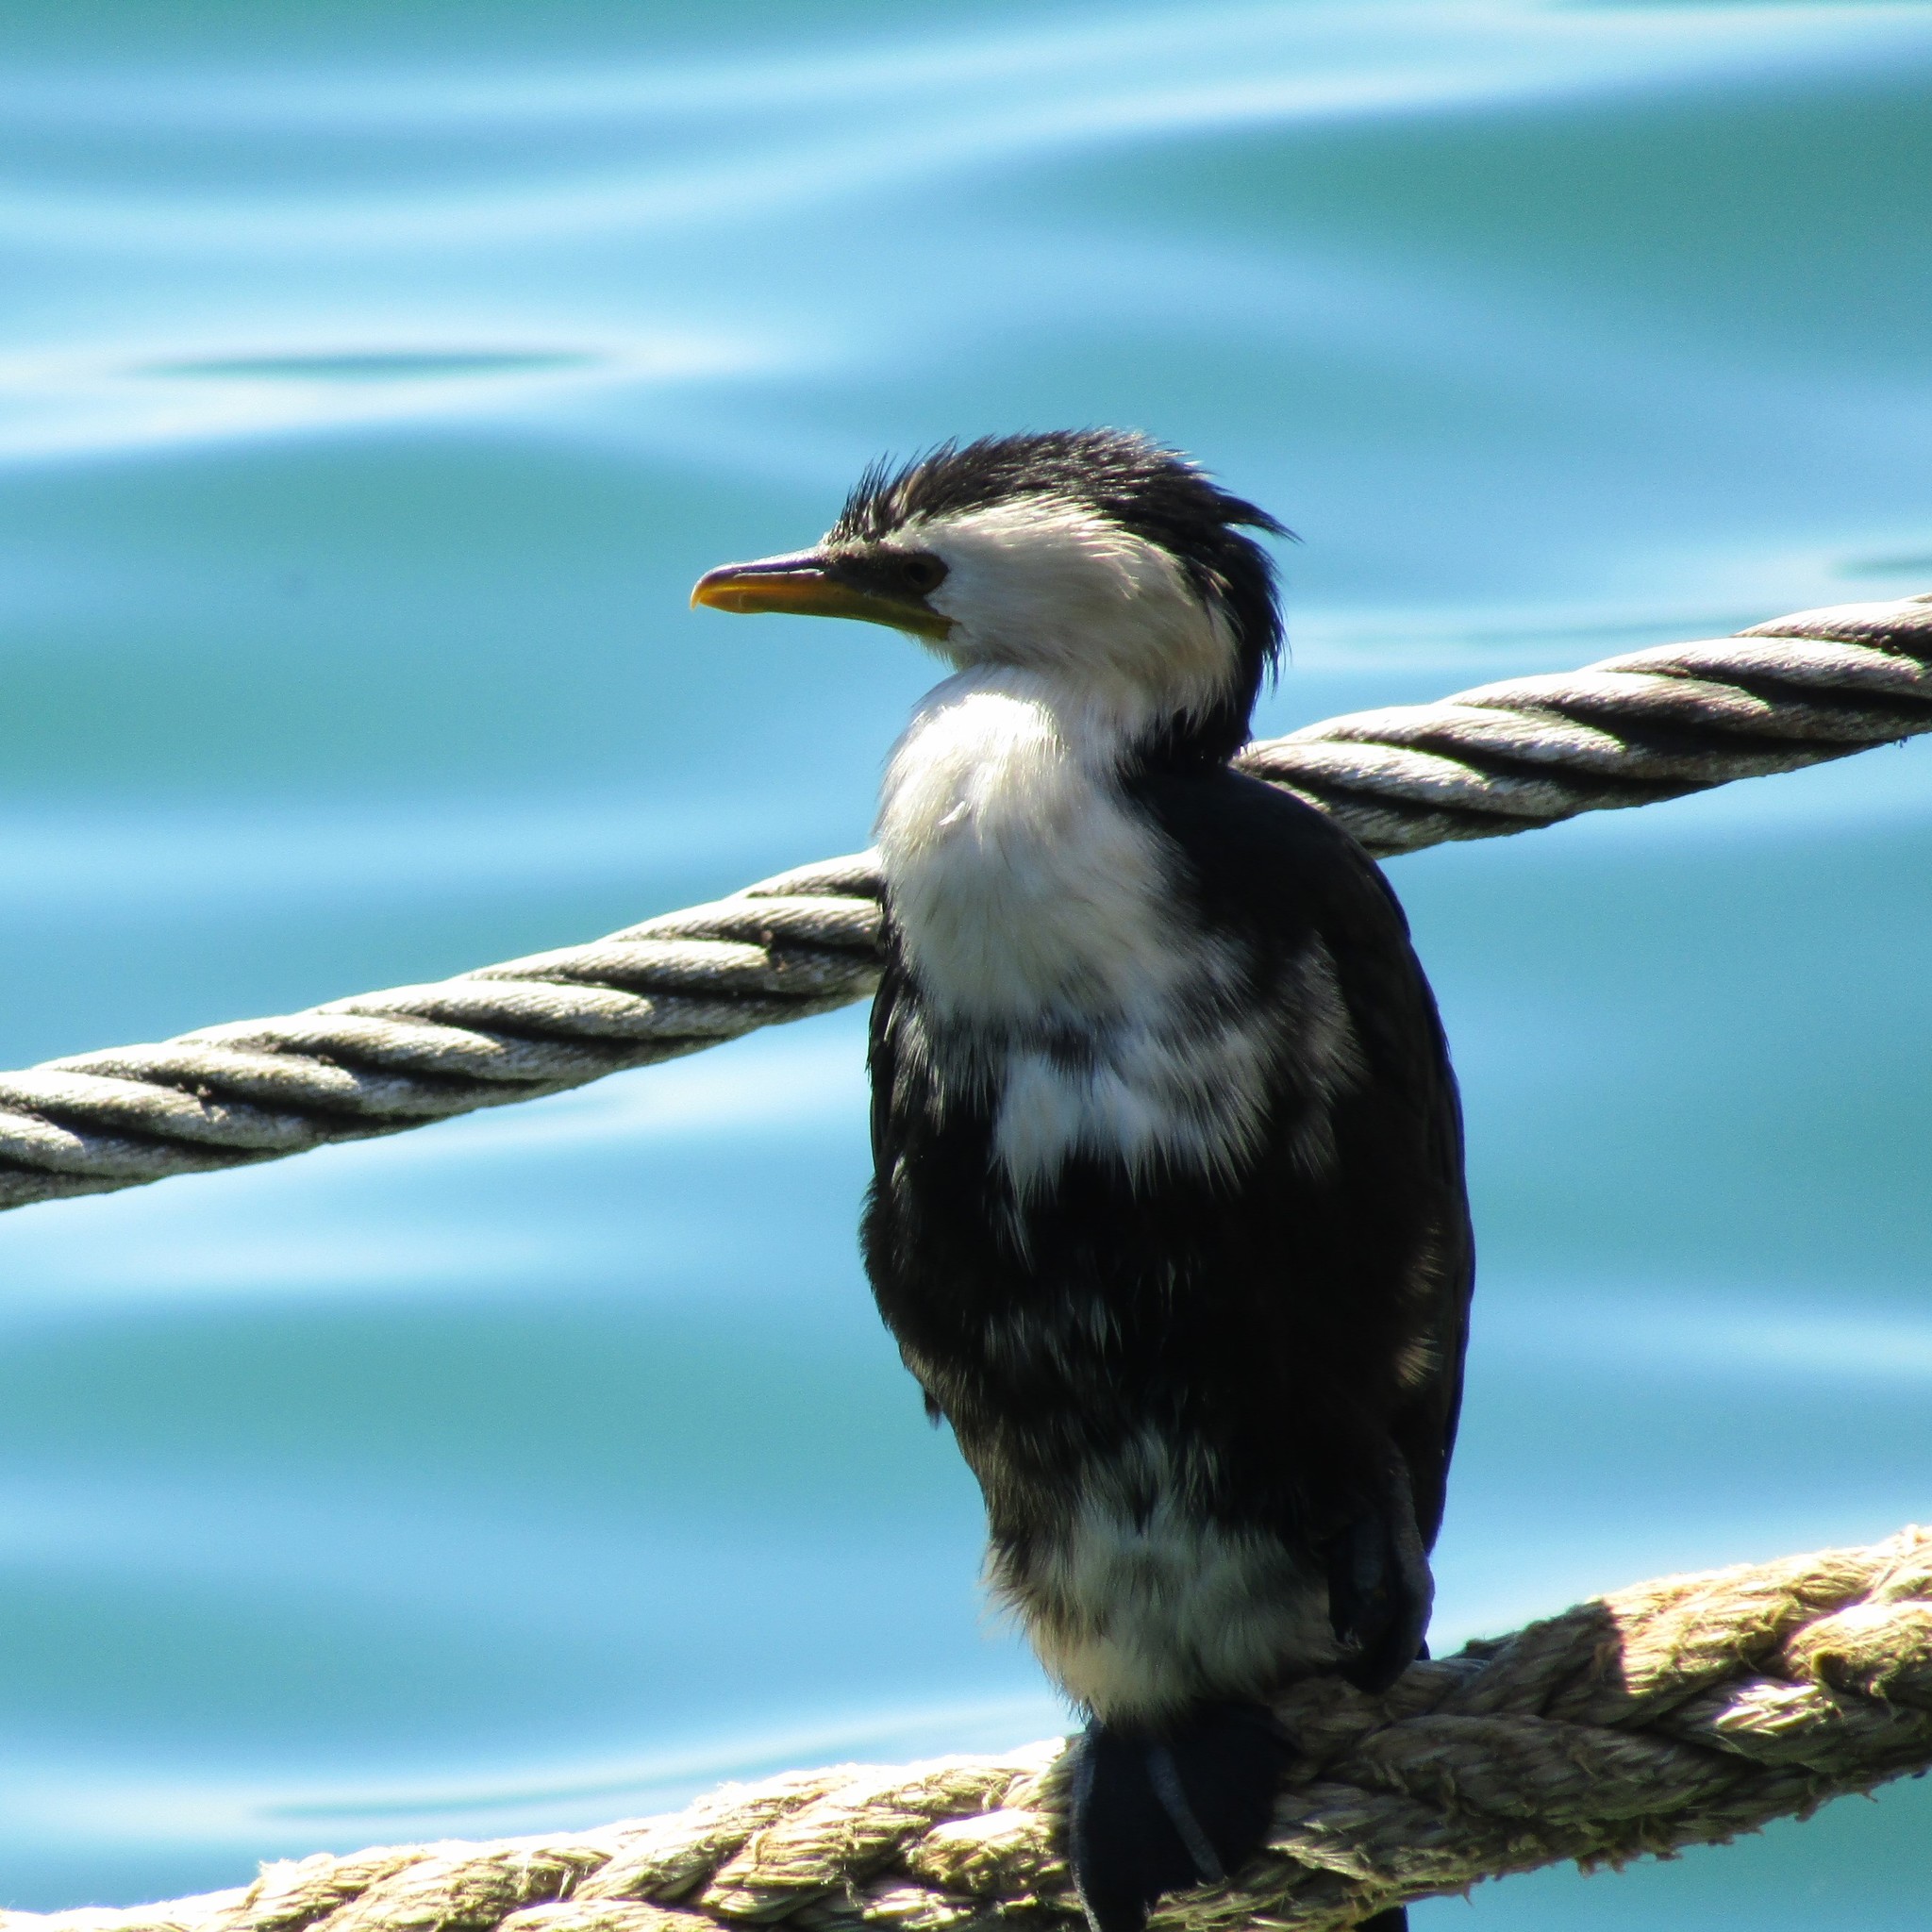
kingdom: Animalia
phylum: Chordata
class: Aves
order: Suliformes
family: Phalacrocoracidae
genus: Microcarbo
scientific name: Microcarbo melanoleucos
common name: Little pied cormorant
